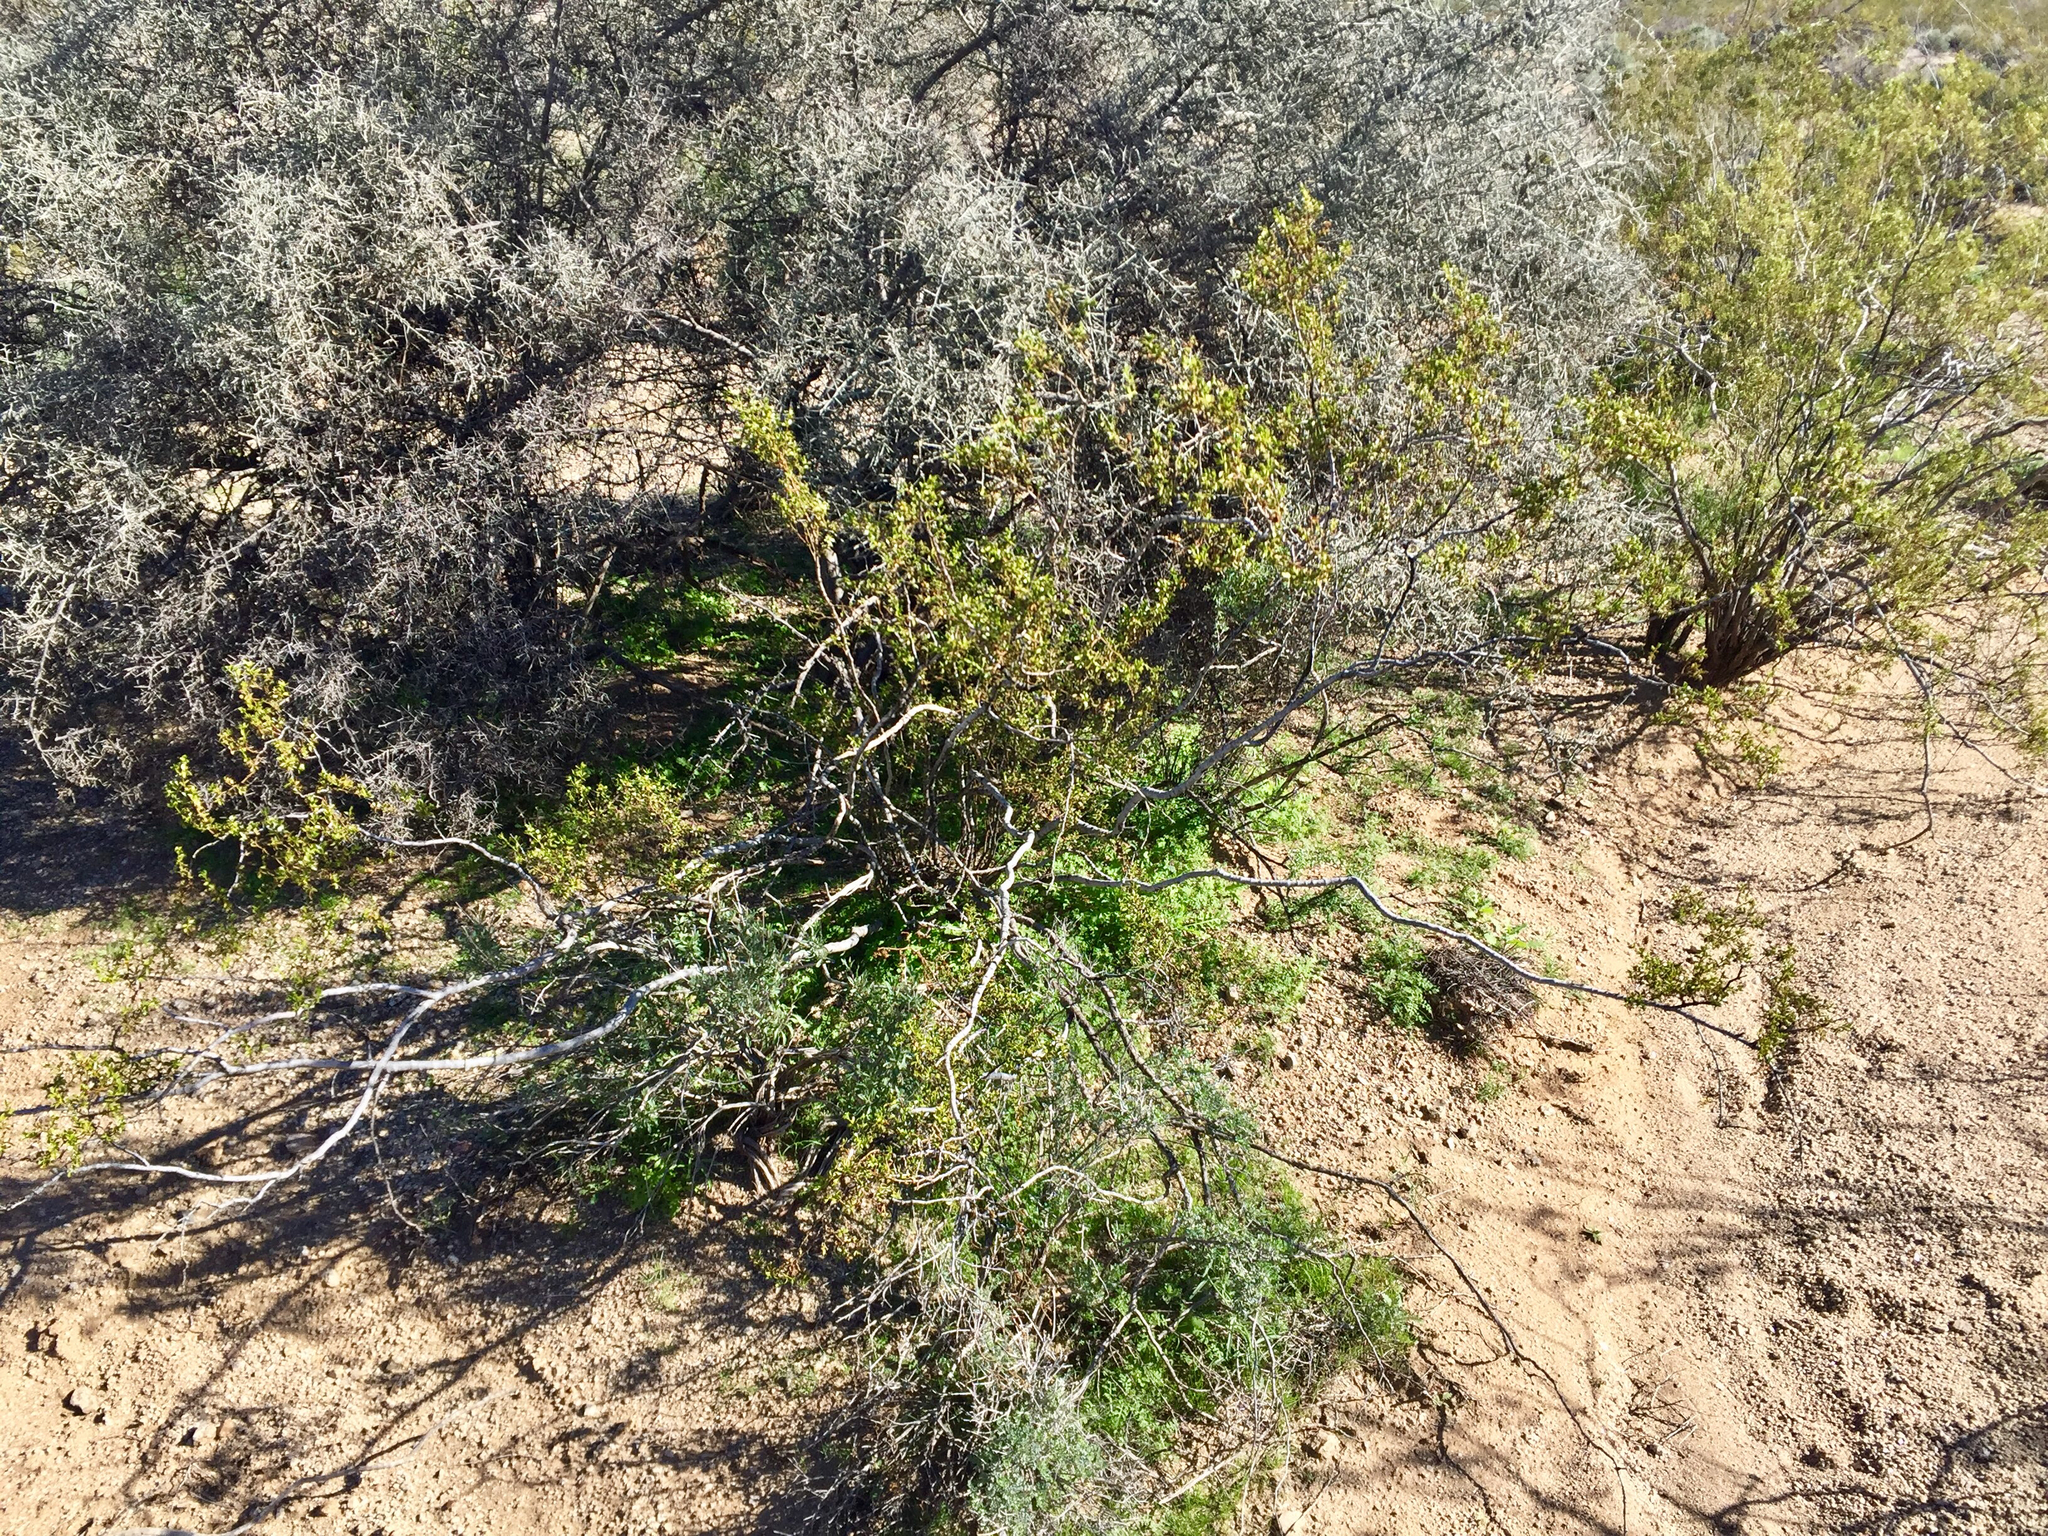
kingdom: Plantae
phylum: Tracheophyta
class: Magnoliopsida
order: Zygophyllales
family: Zygophyllaceae
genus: Larrea
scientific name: Larrea tridentata
